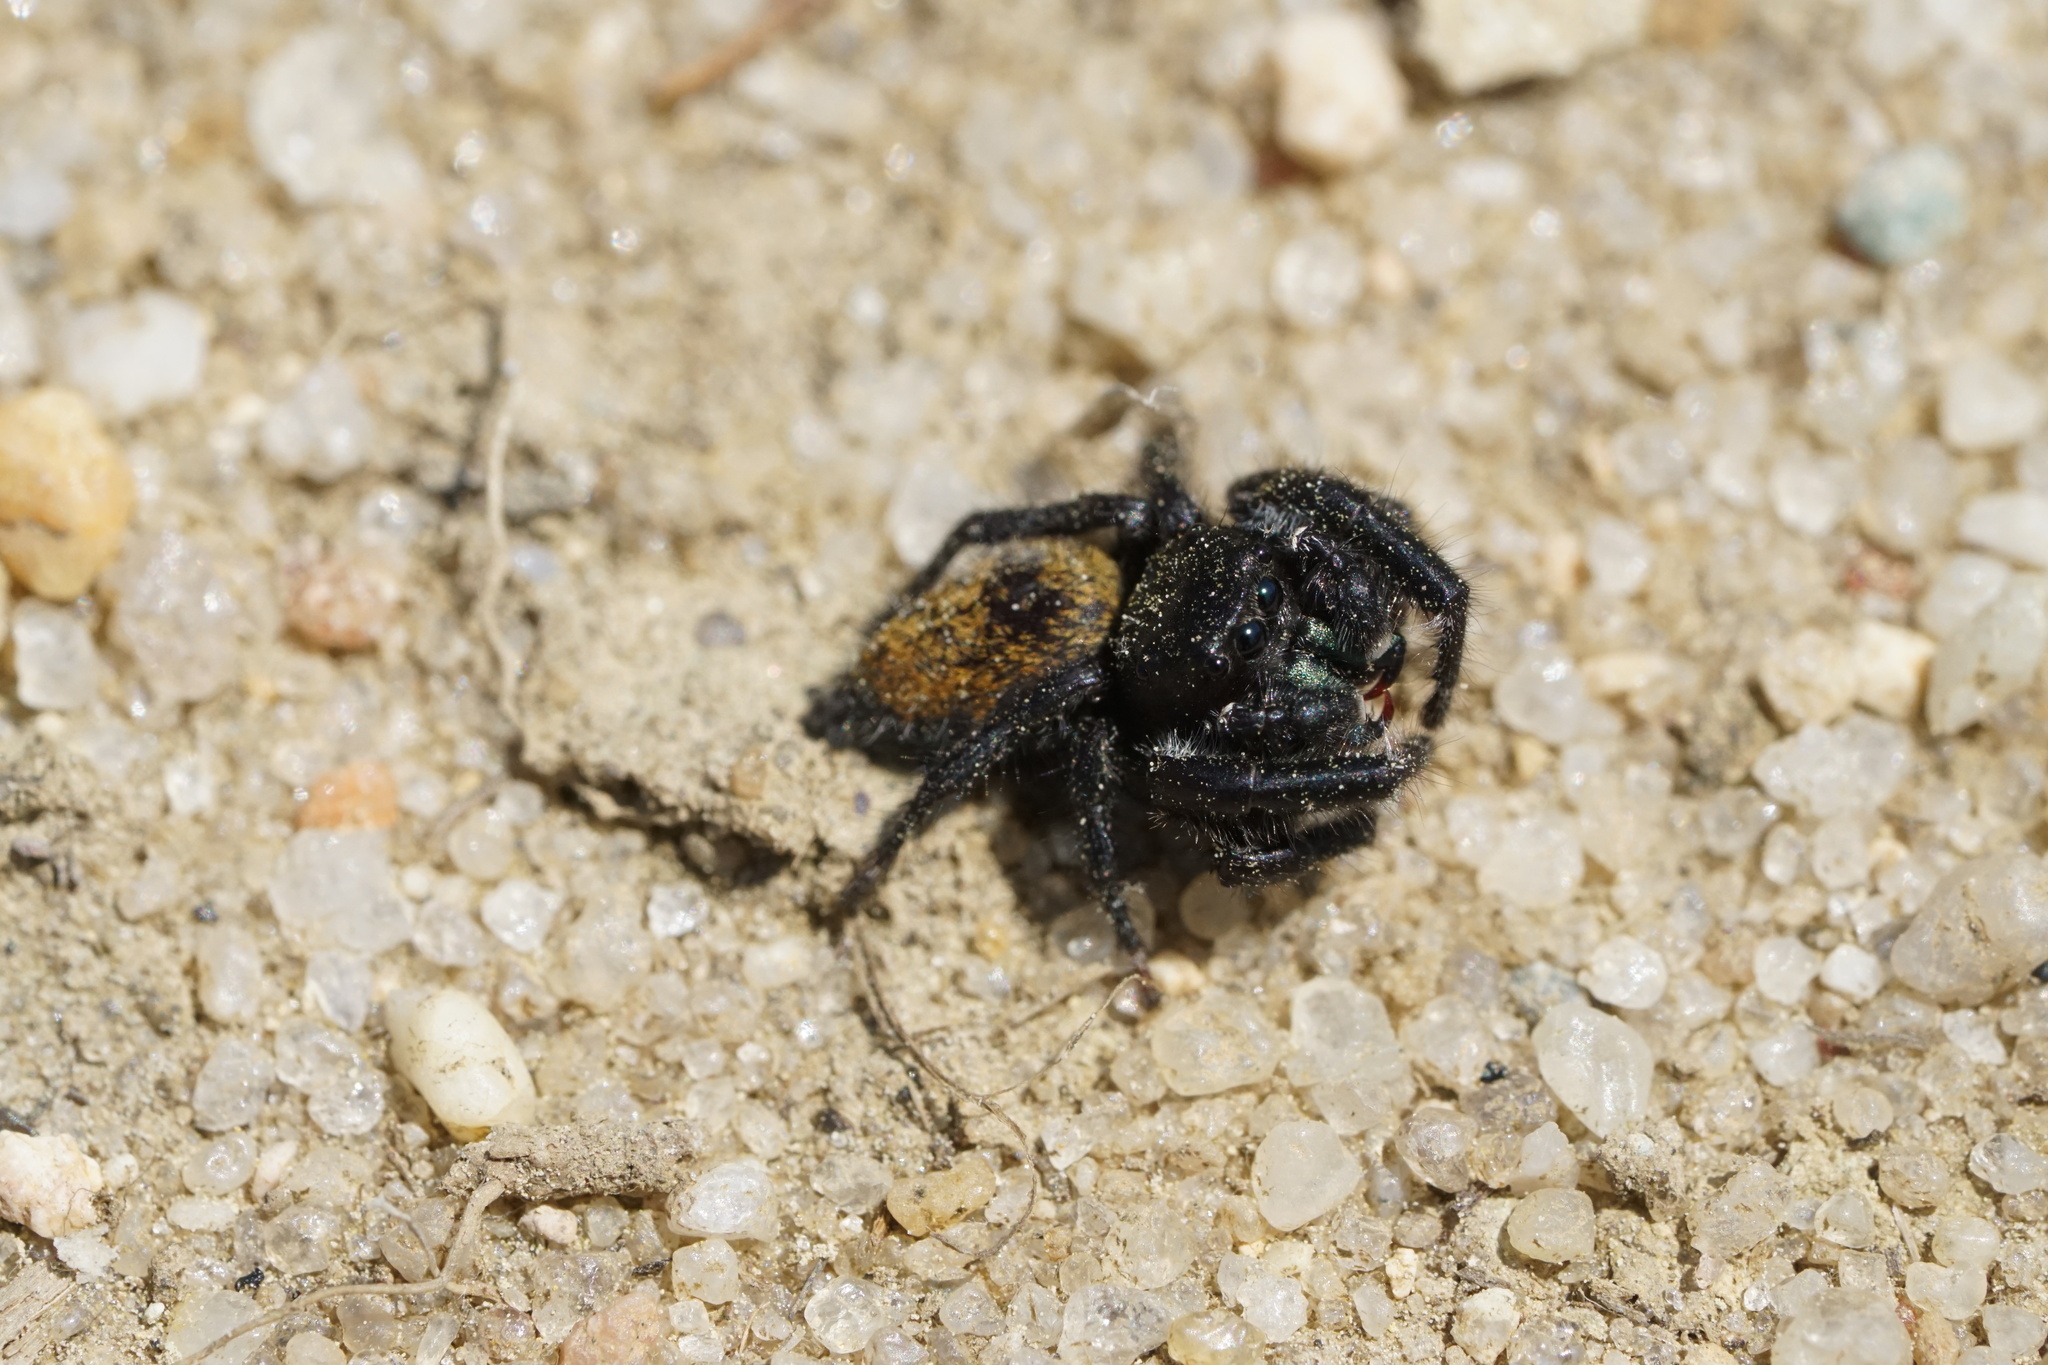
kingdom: Animalia
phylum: Arthropoda
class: Arachnida
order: Araneae
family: Salticidae
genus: Phidippus
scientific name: Phidippus princeps
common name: Grayish jumping spider
